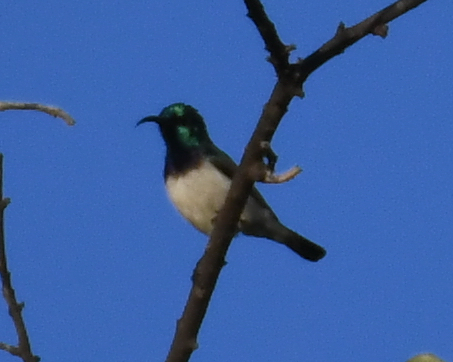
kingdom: Animalia
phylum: Chordata
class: Aves
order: Passeriformes
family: Nectariniidae
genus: Cinnyris
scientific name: Cinnyris talatala
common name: White-bellied sunbird
